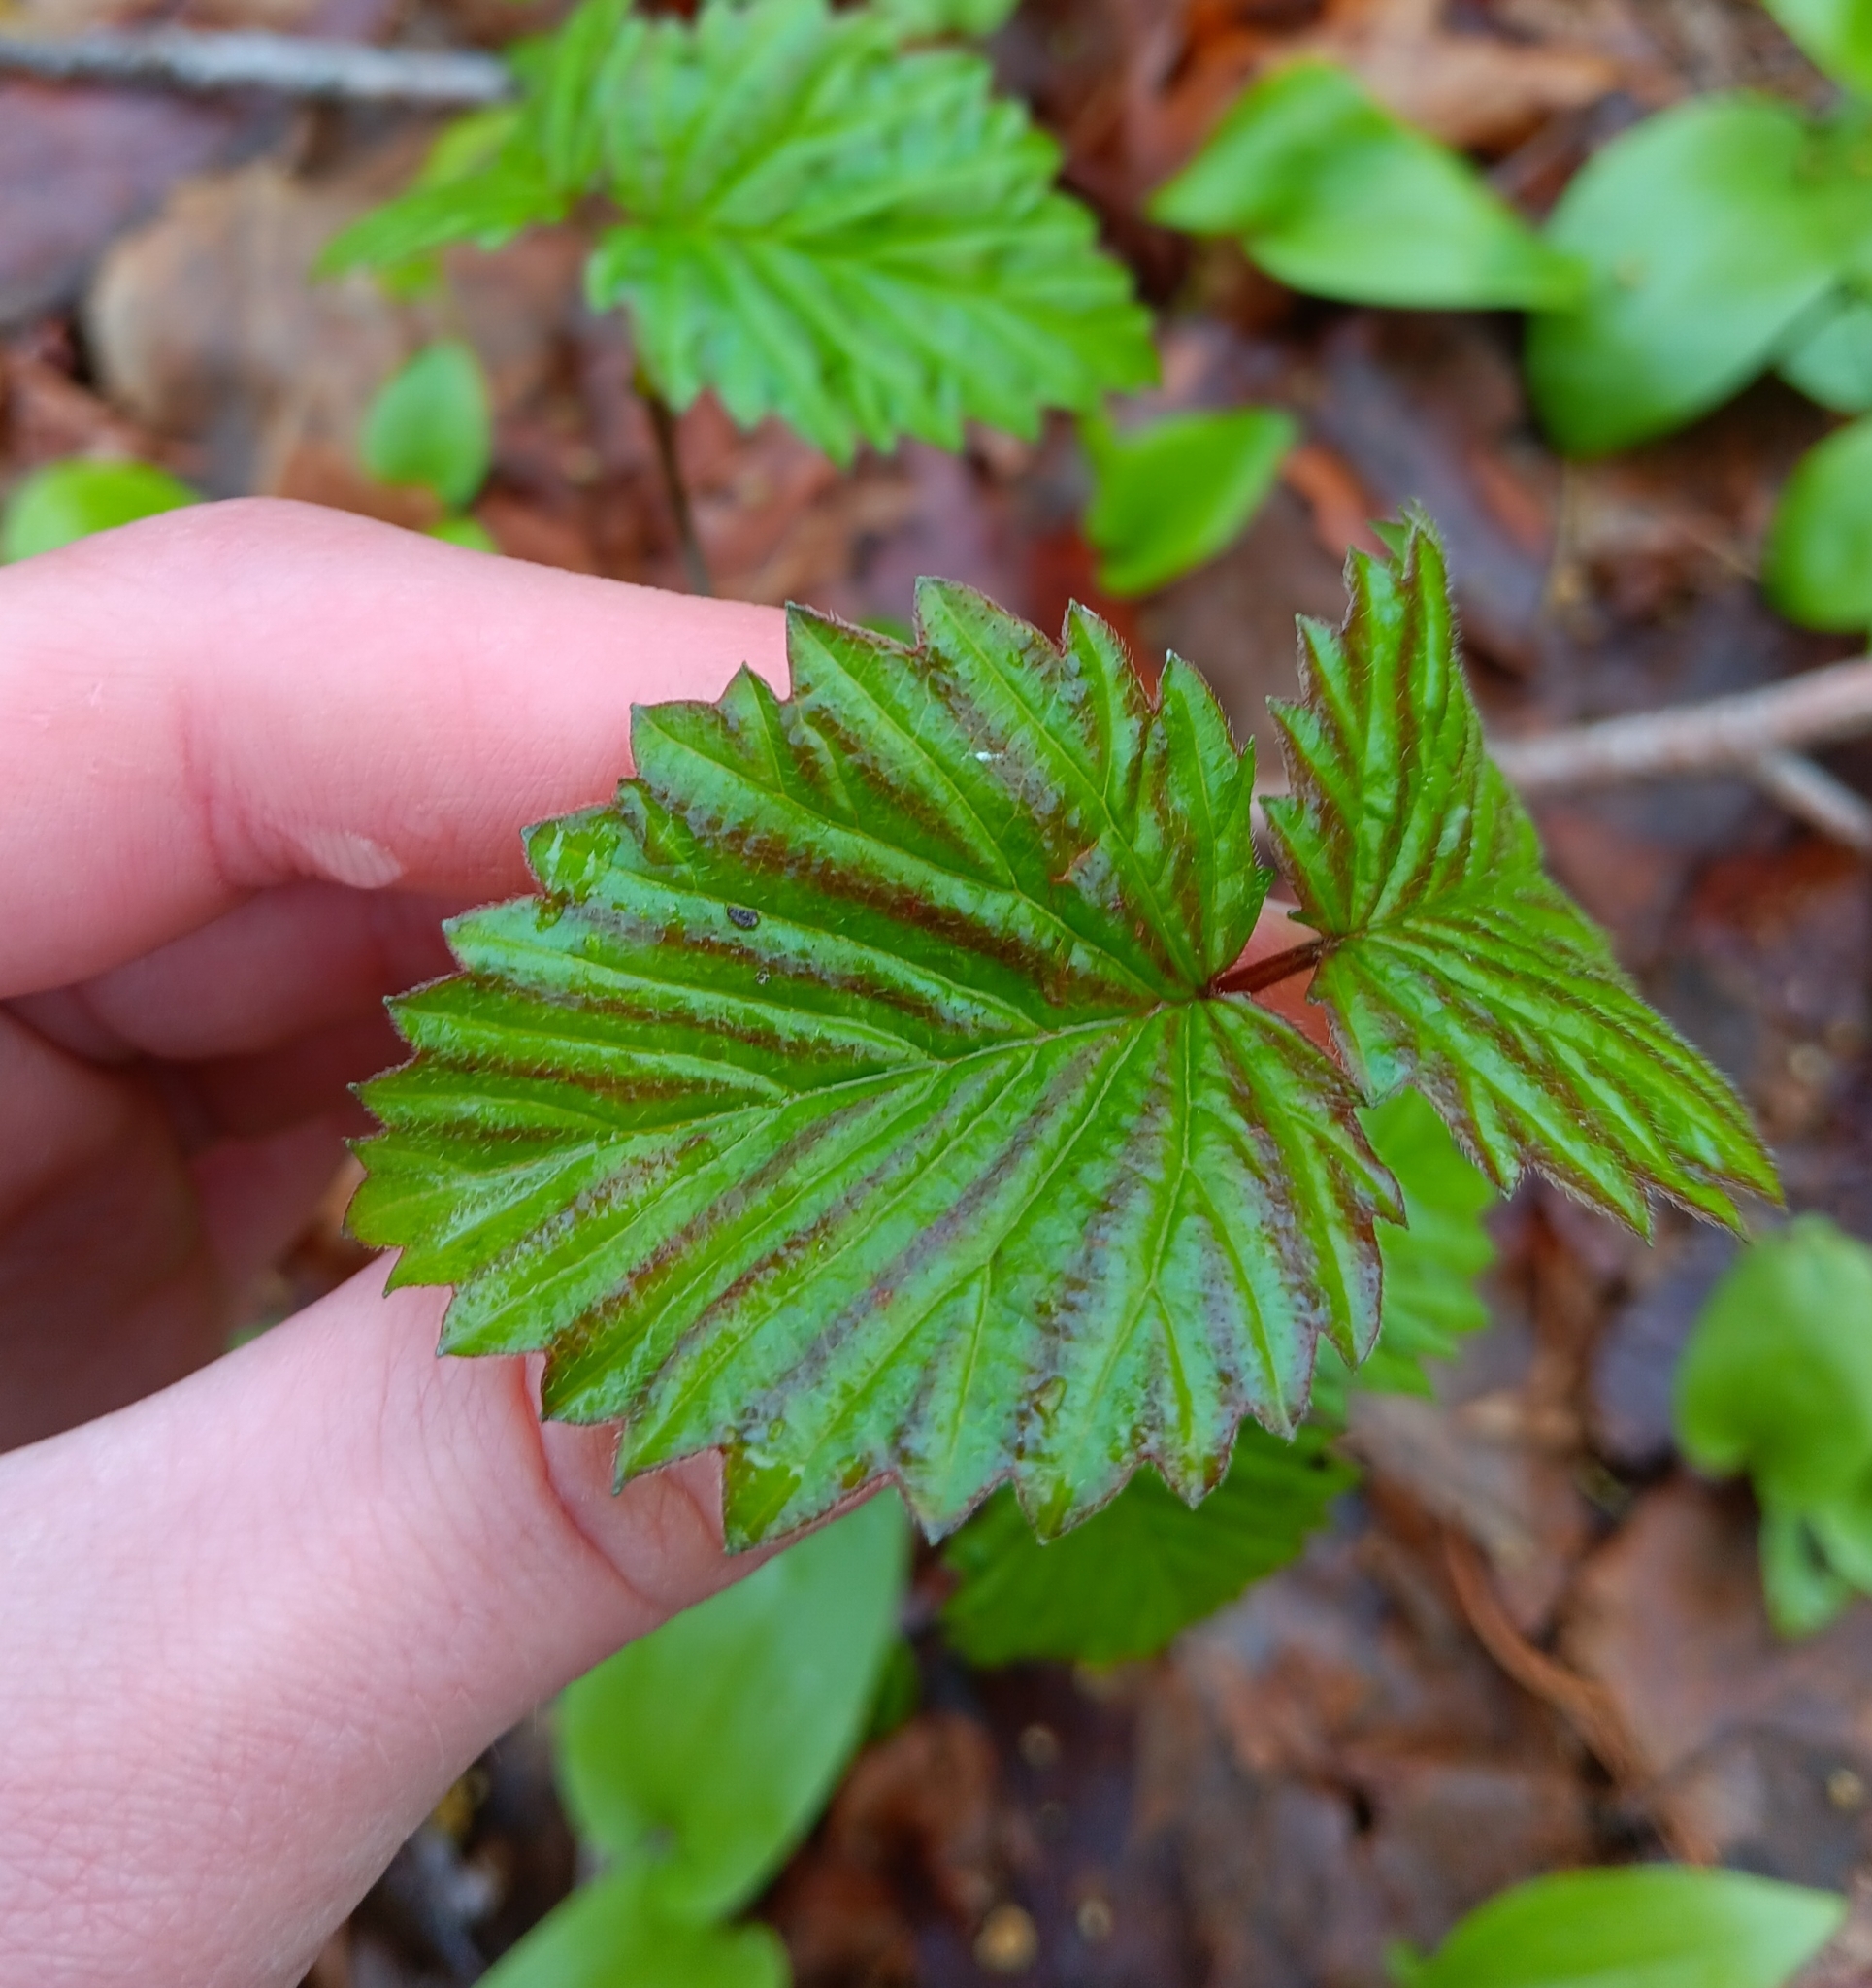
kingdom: Plantae
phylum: Tracheophyta
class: Magnoliopsida
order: Dipsacales
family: Viburnaceae
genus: Viburnum
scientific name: Viburnum dentatum
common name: Arrow-wood
